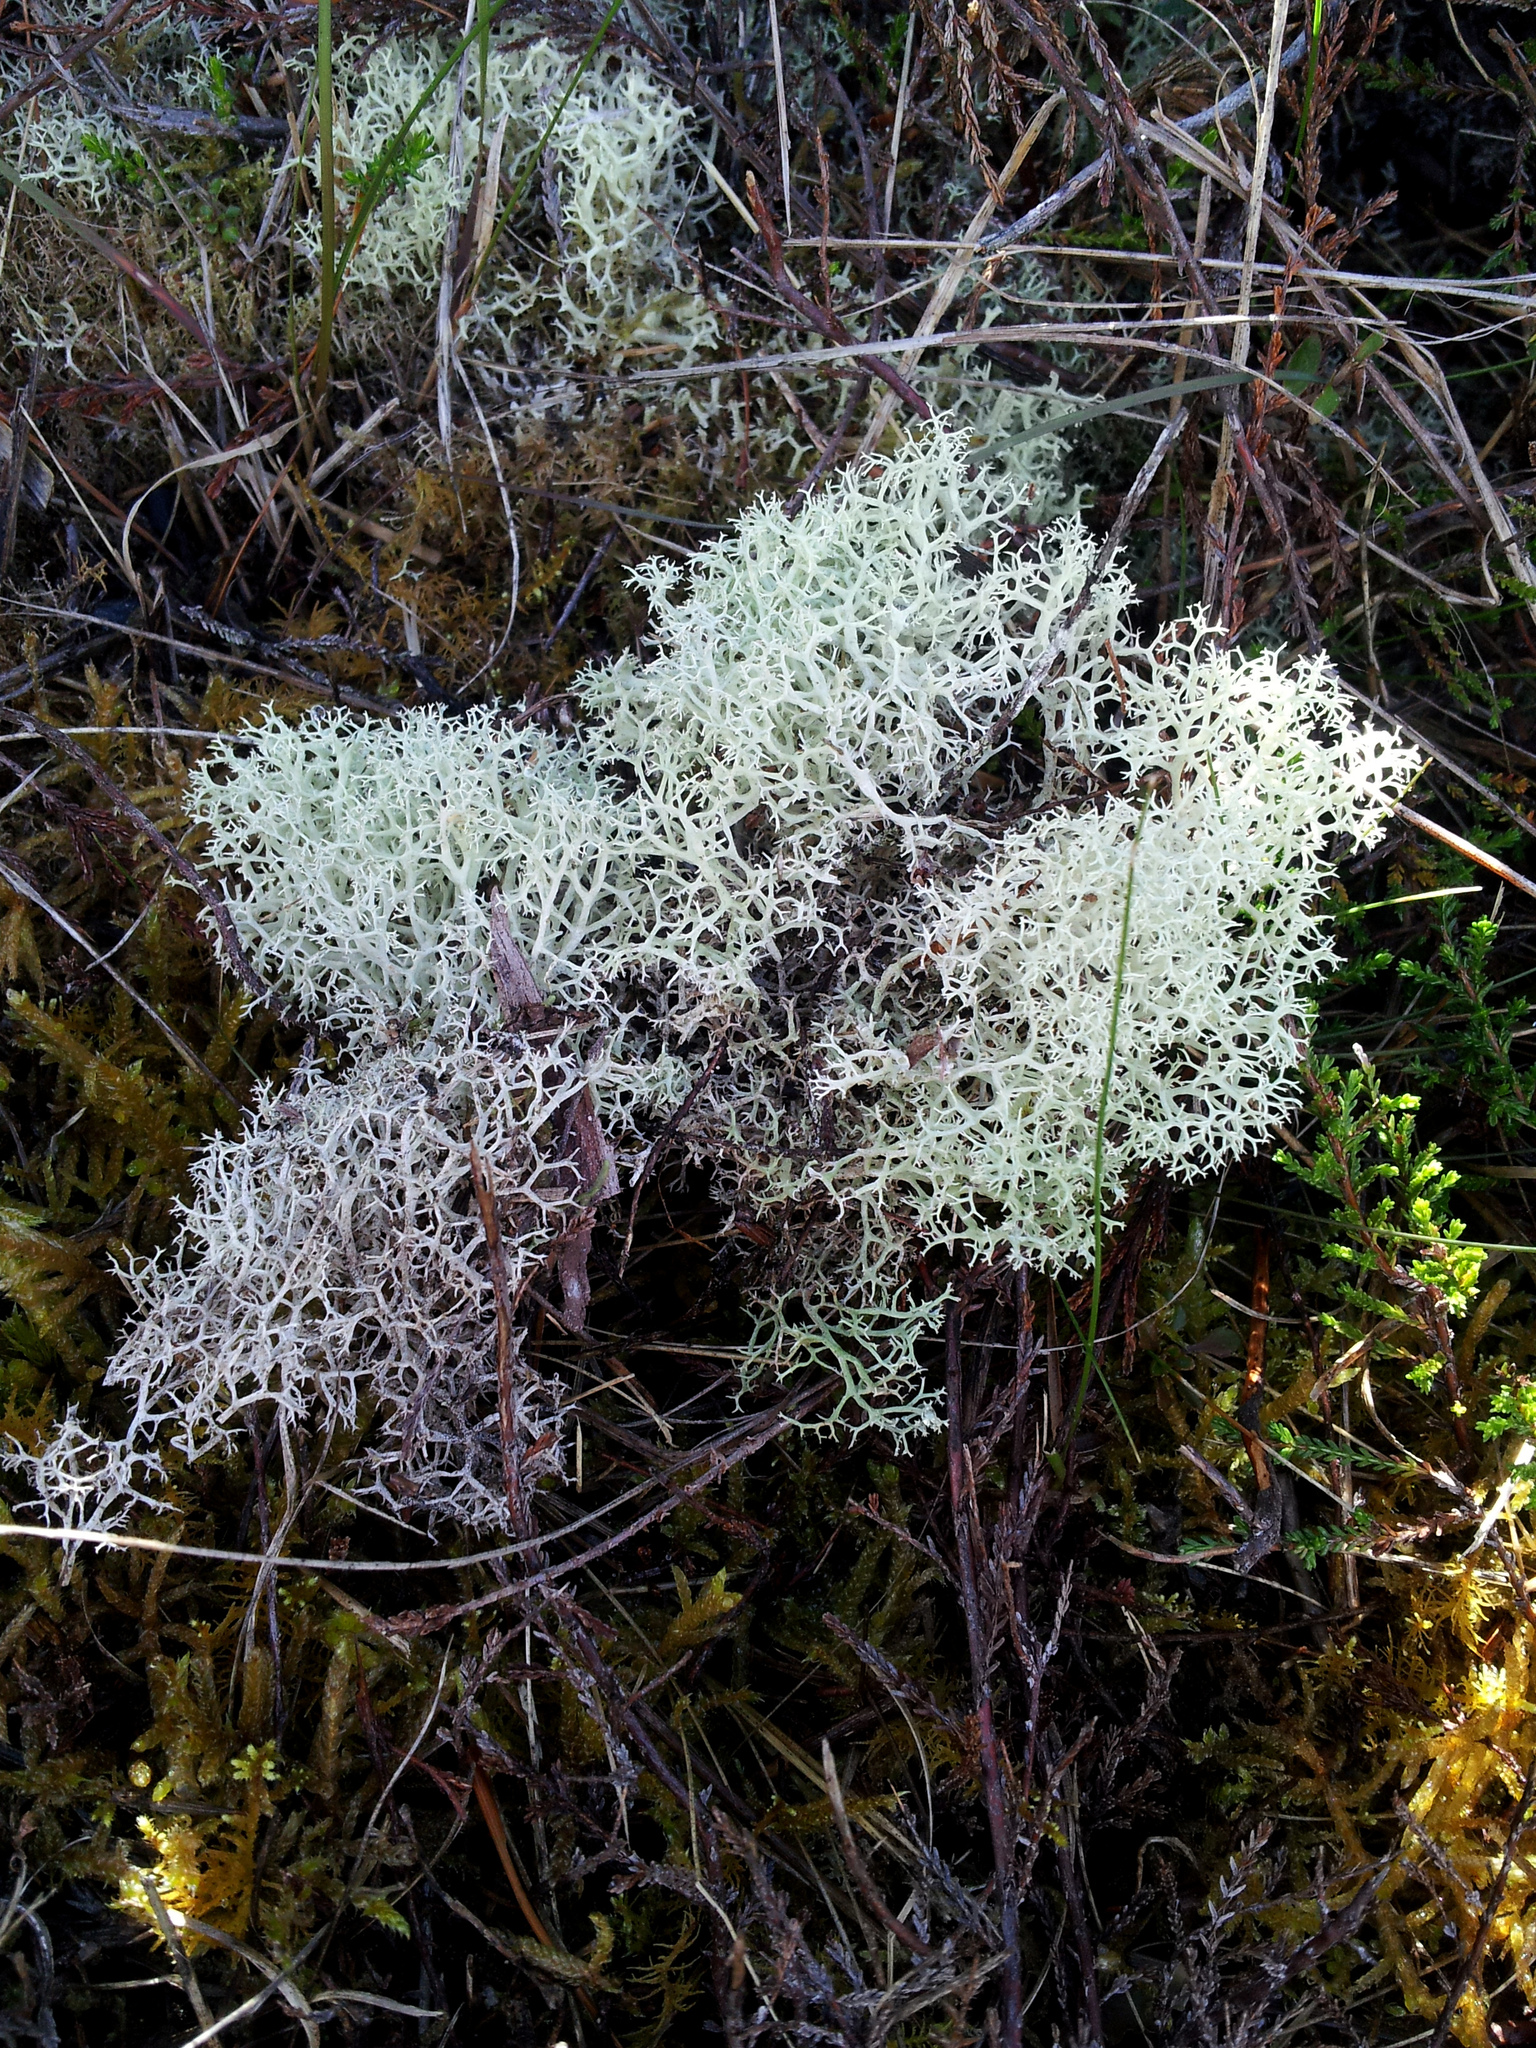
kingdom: Fungi
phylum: Ascomycota
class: Lecanoromycetes
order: Lecanorales
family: Cladoniaceae
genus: Cladonia
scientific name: Cladonia confusa
